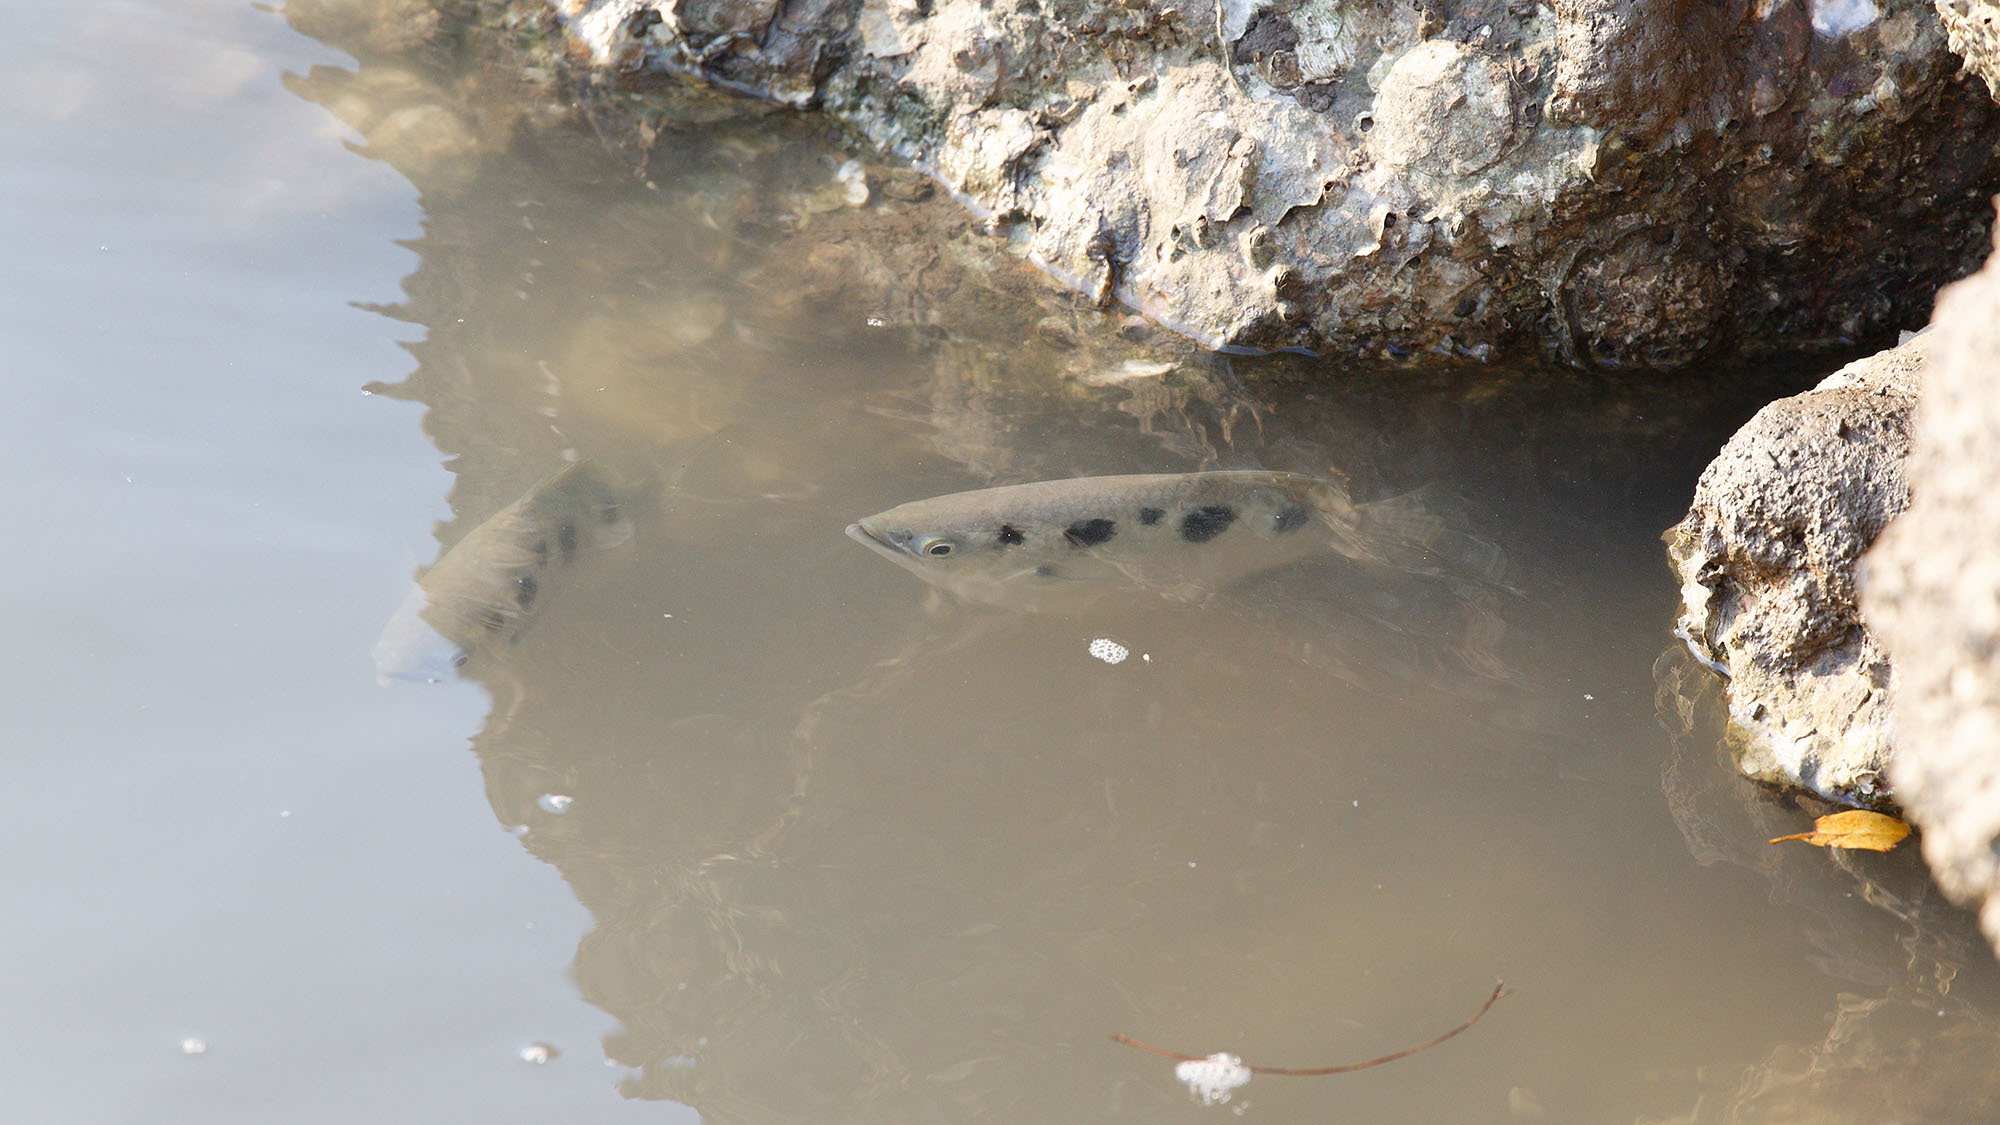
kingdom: Animalia
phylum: Chordata
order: Perciformes
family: Toxotidae
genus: Toxotes
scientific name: Toxotes chatareus
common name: Spotted archerfish
